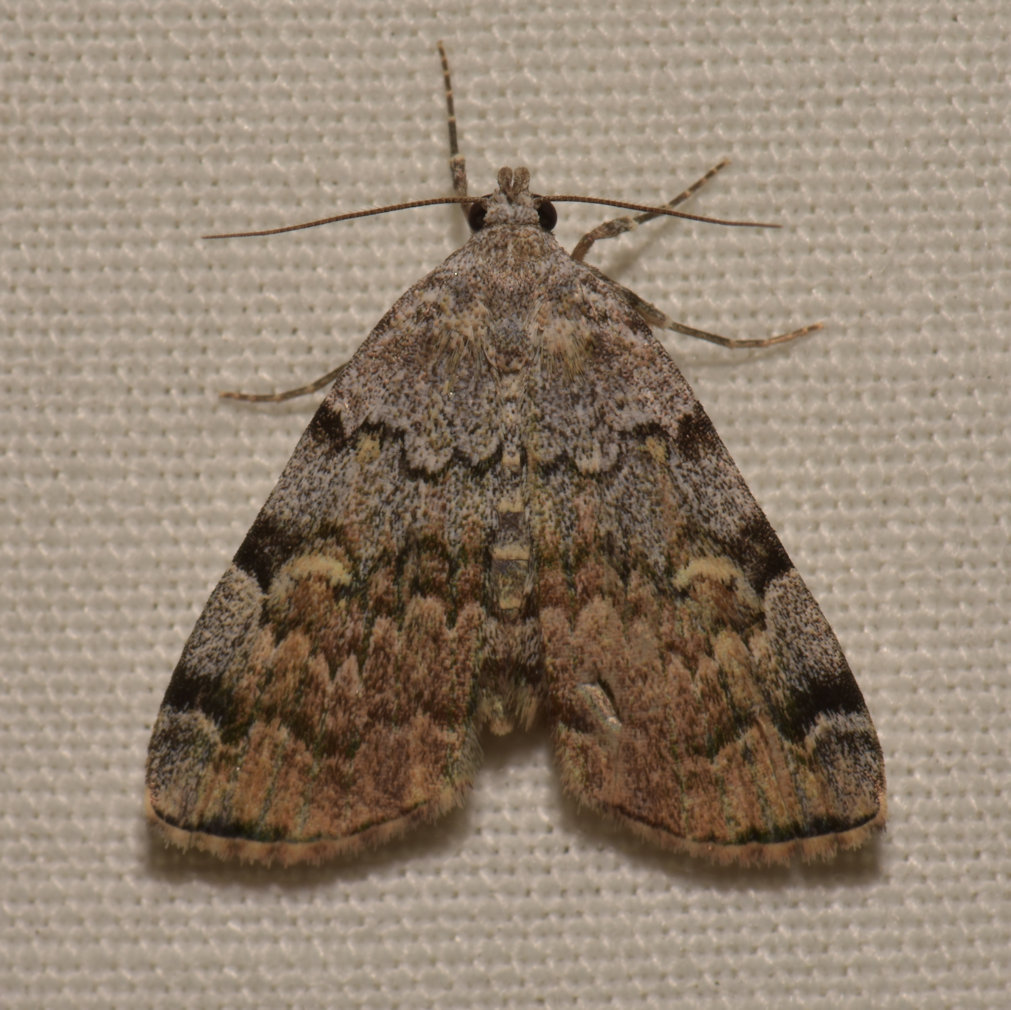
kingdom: Animalia
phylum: Arthropoda
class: Insecta
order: Lepidoptera
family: Erebidae
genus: Idia
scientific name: Idia americalis
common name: American idia moth
